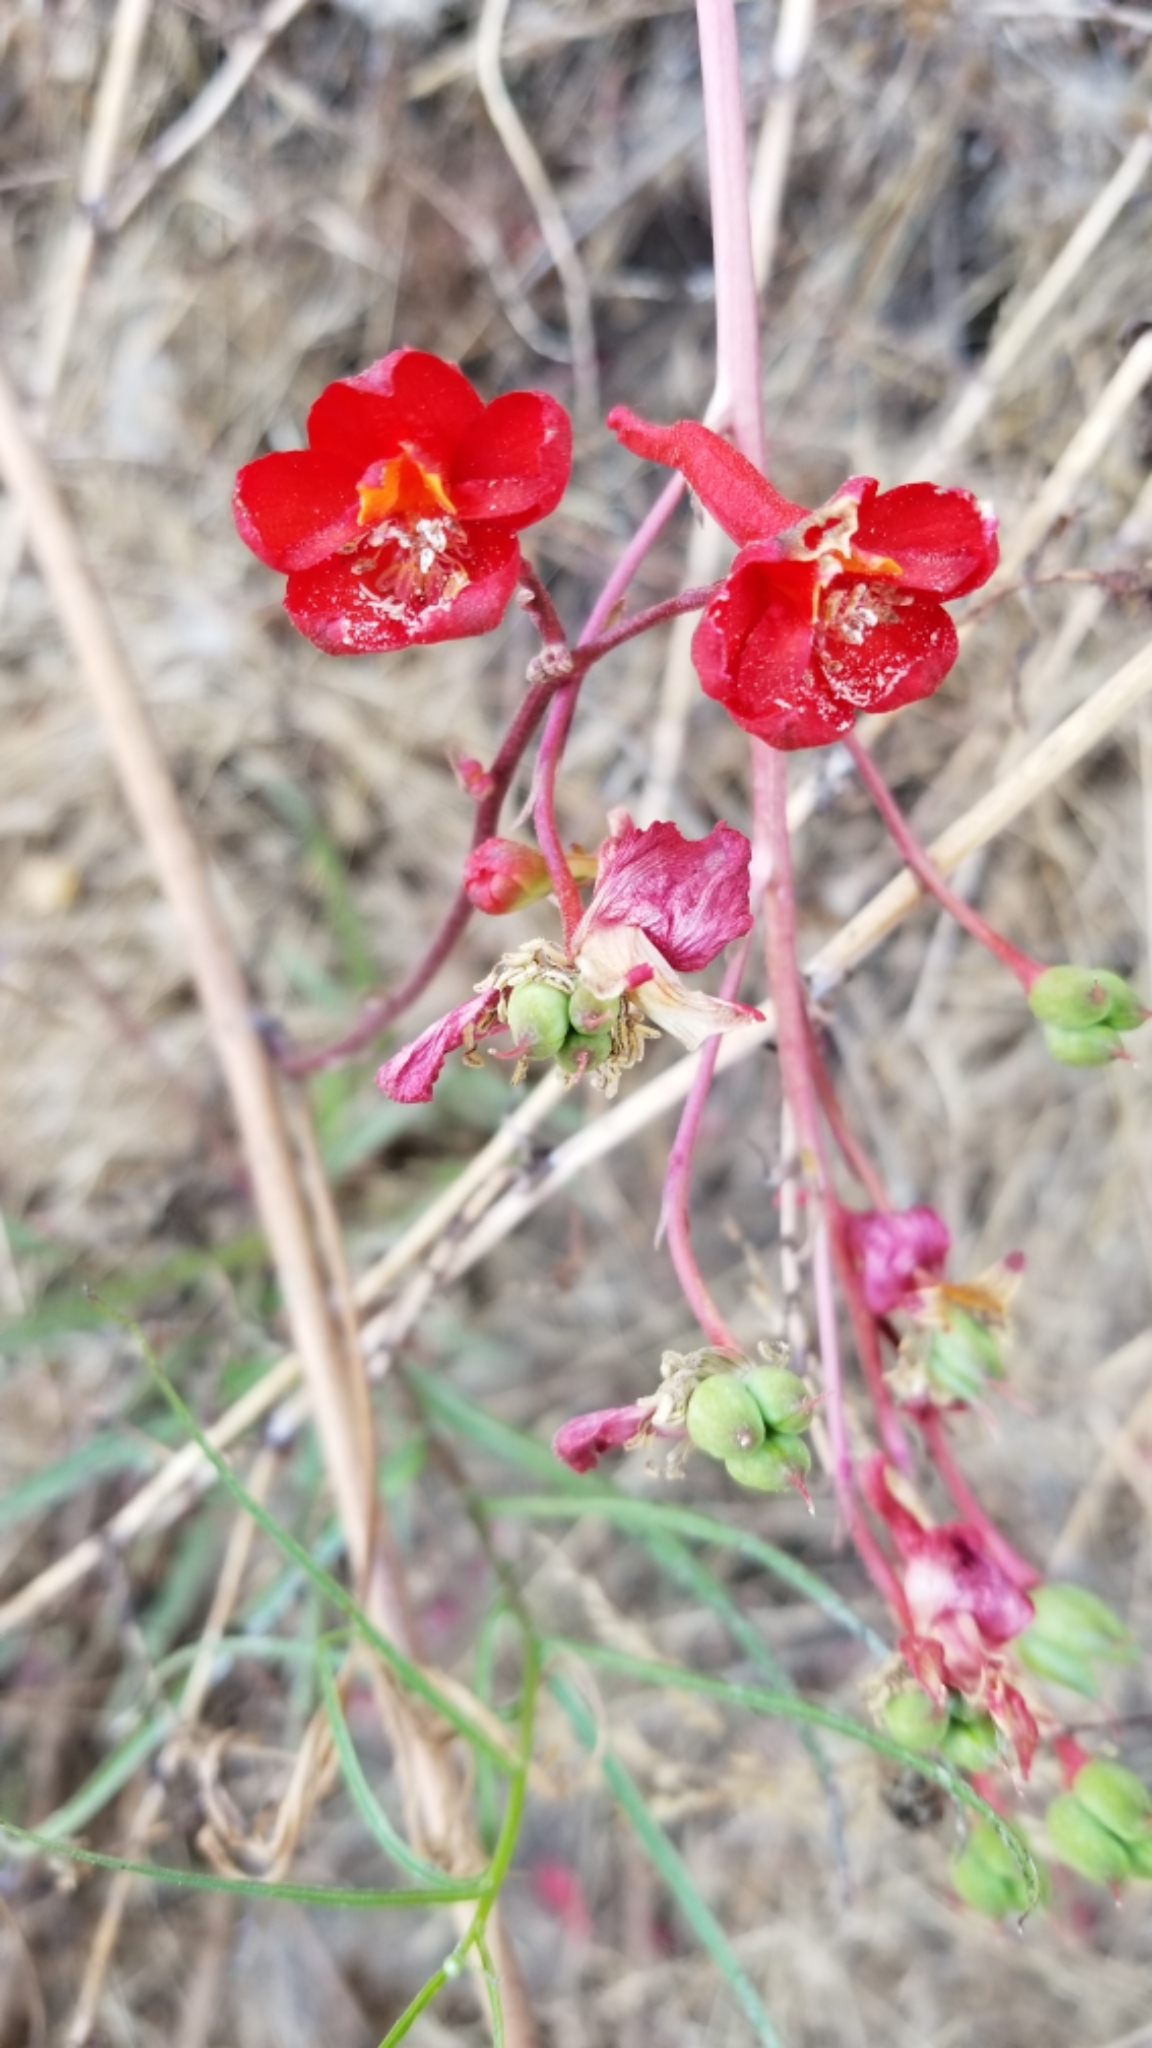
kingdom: Plantae
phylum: Tracheophyta
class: Magnoliopsida
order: Ranunculales
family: Ranunculaceae
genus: Delphinium
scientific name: Delphinium cardinale
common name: Scarlet larkspur
